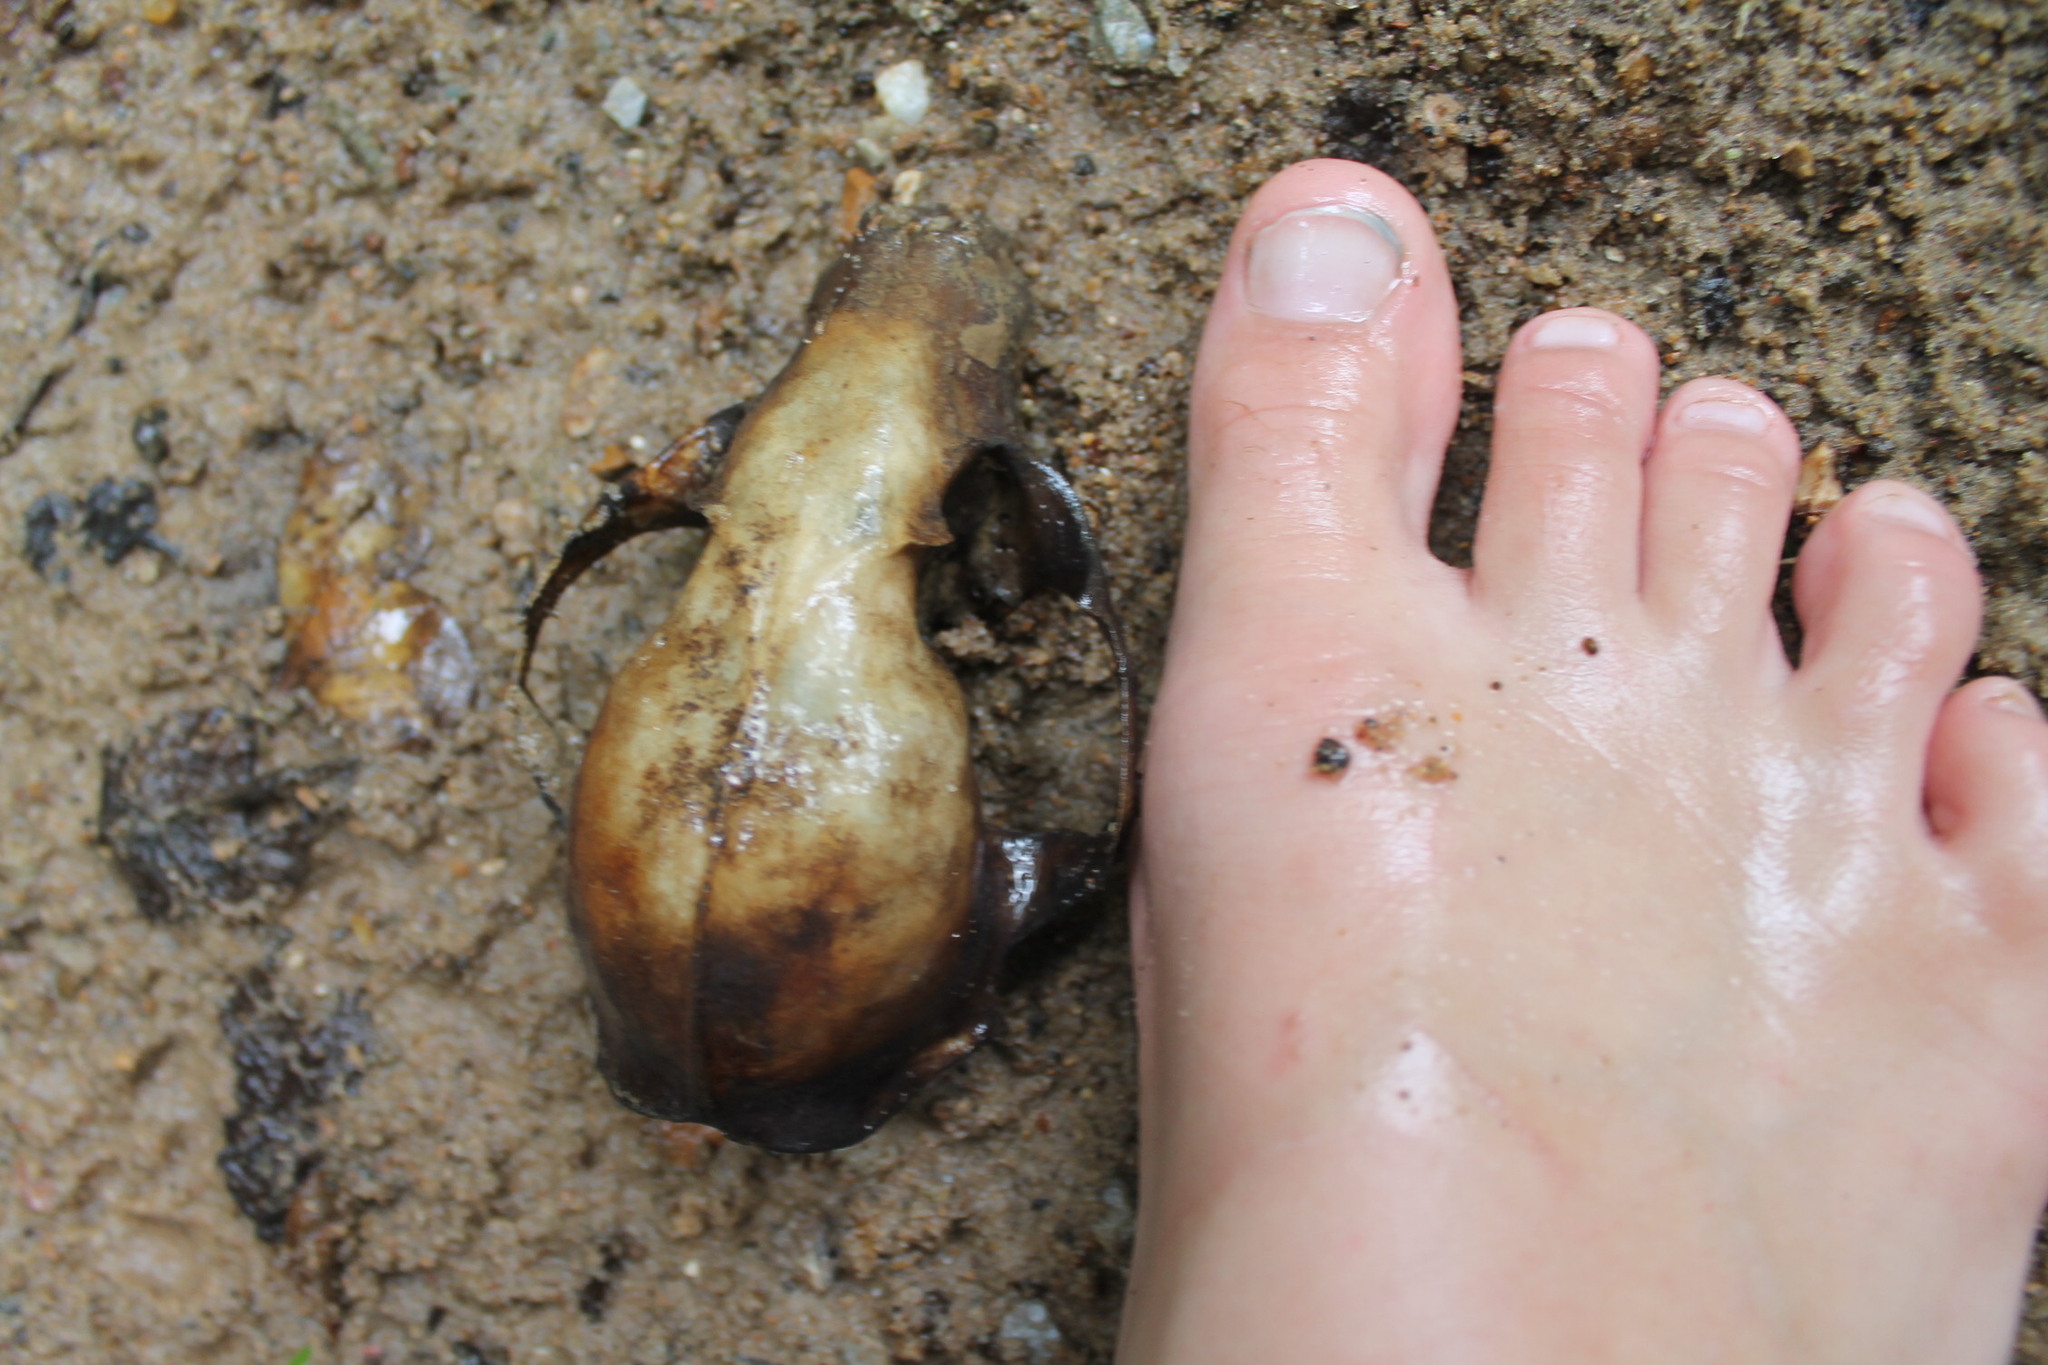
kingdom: Animalia
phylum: Chordata
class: Mammalia
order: Carnivora
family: Procyonidae
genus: Procyon
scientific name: Procyon lotor
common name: Raccoon
